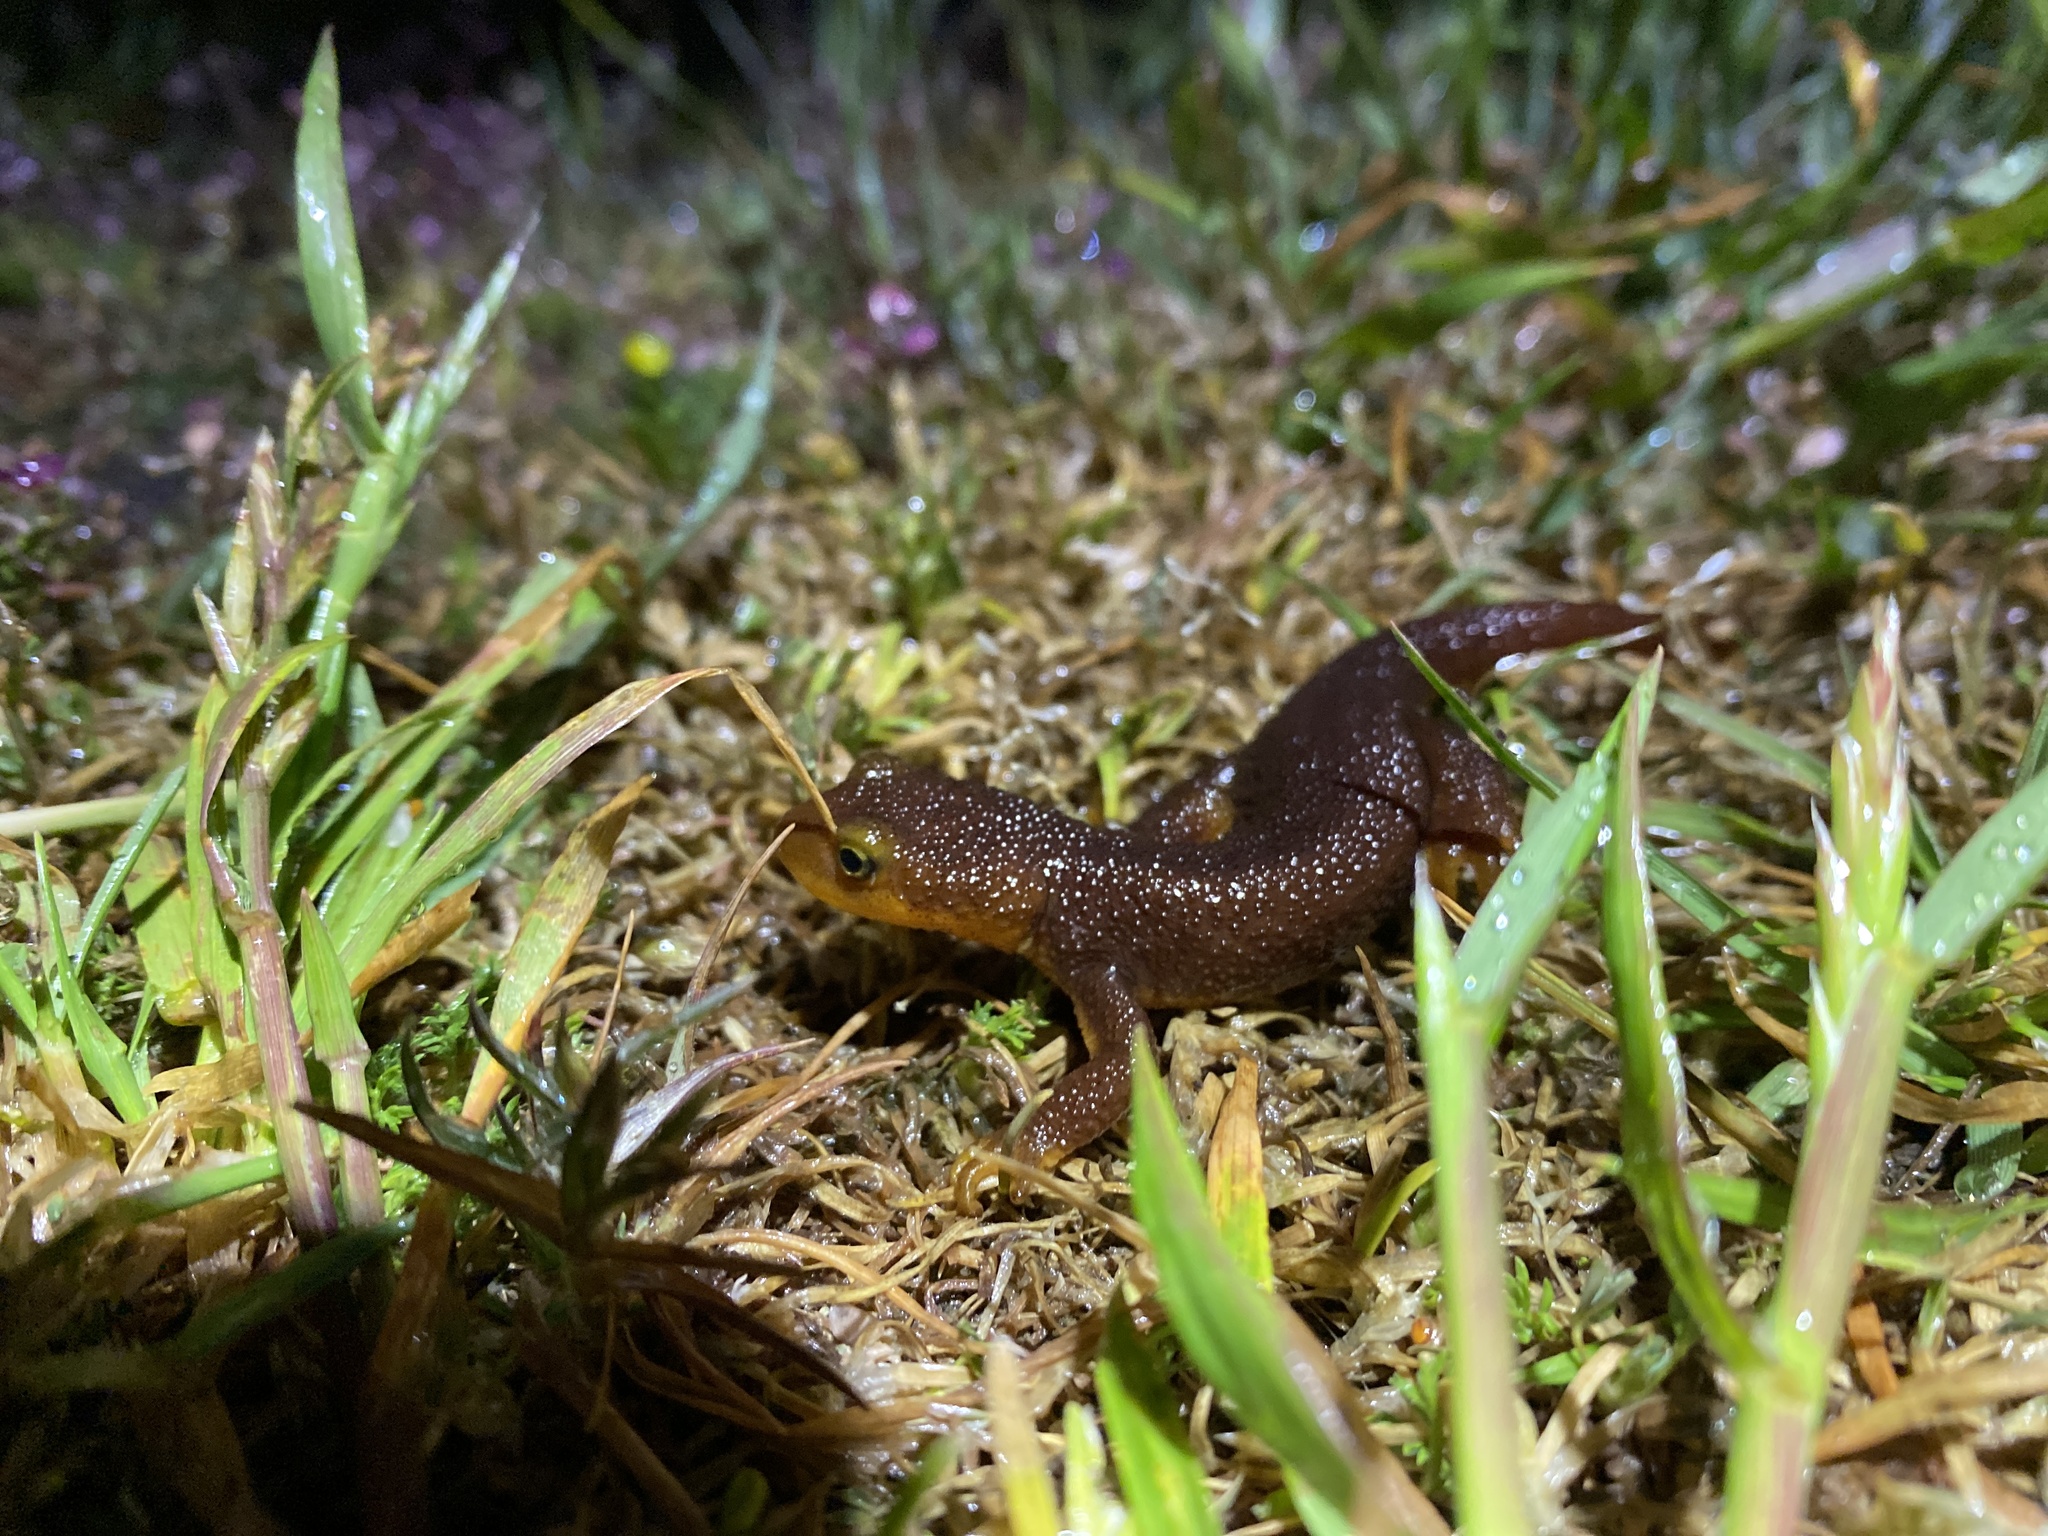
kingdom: Animalia
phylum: Chordata
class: Amphibia
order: Caudata
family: Salamandridae
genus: Taricha
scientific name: Taricha torosa
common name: California newt
